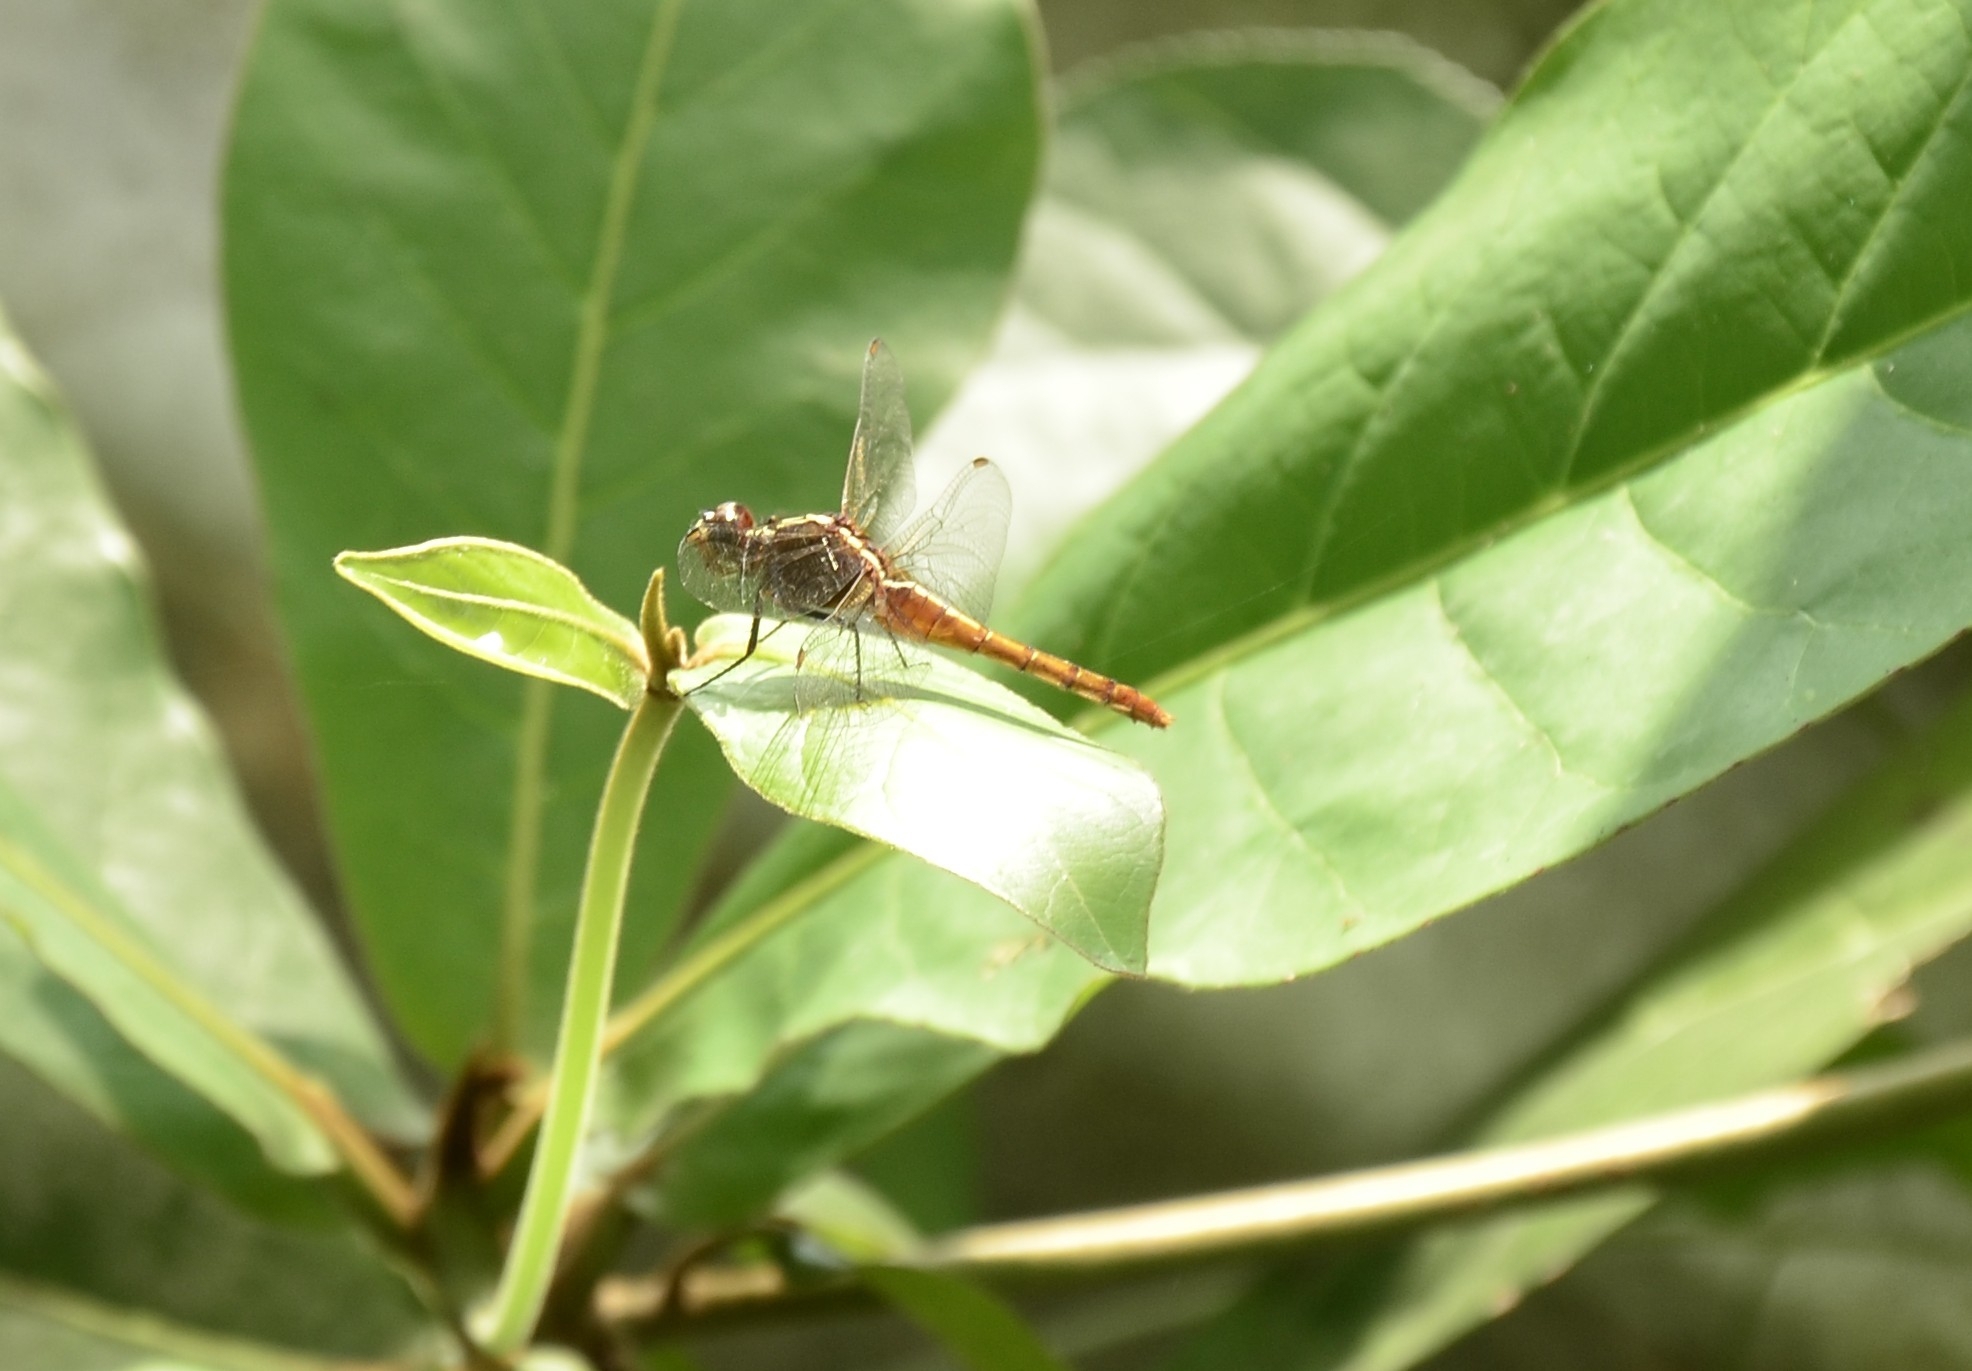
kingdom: Animalia
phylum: Arthropoda
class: Insecta
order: Odonata
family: Libellulidae
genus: Rhodothemis
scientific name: Rhodothemis rufa
